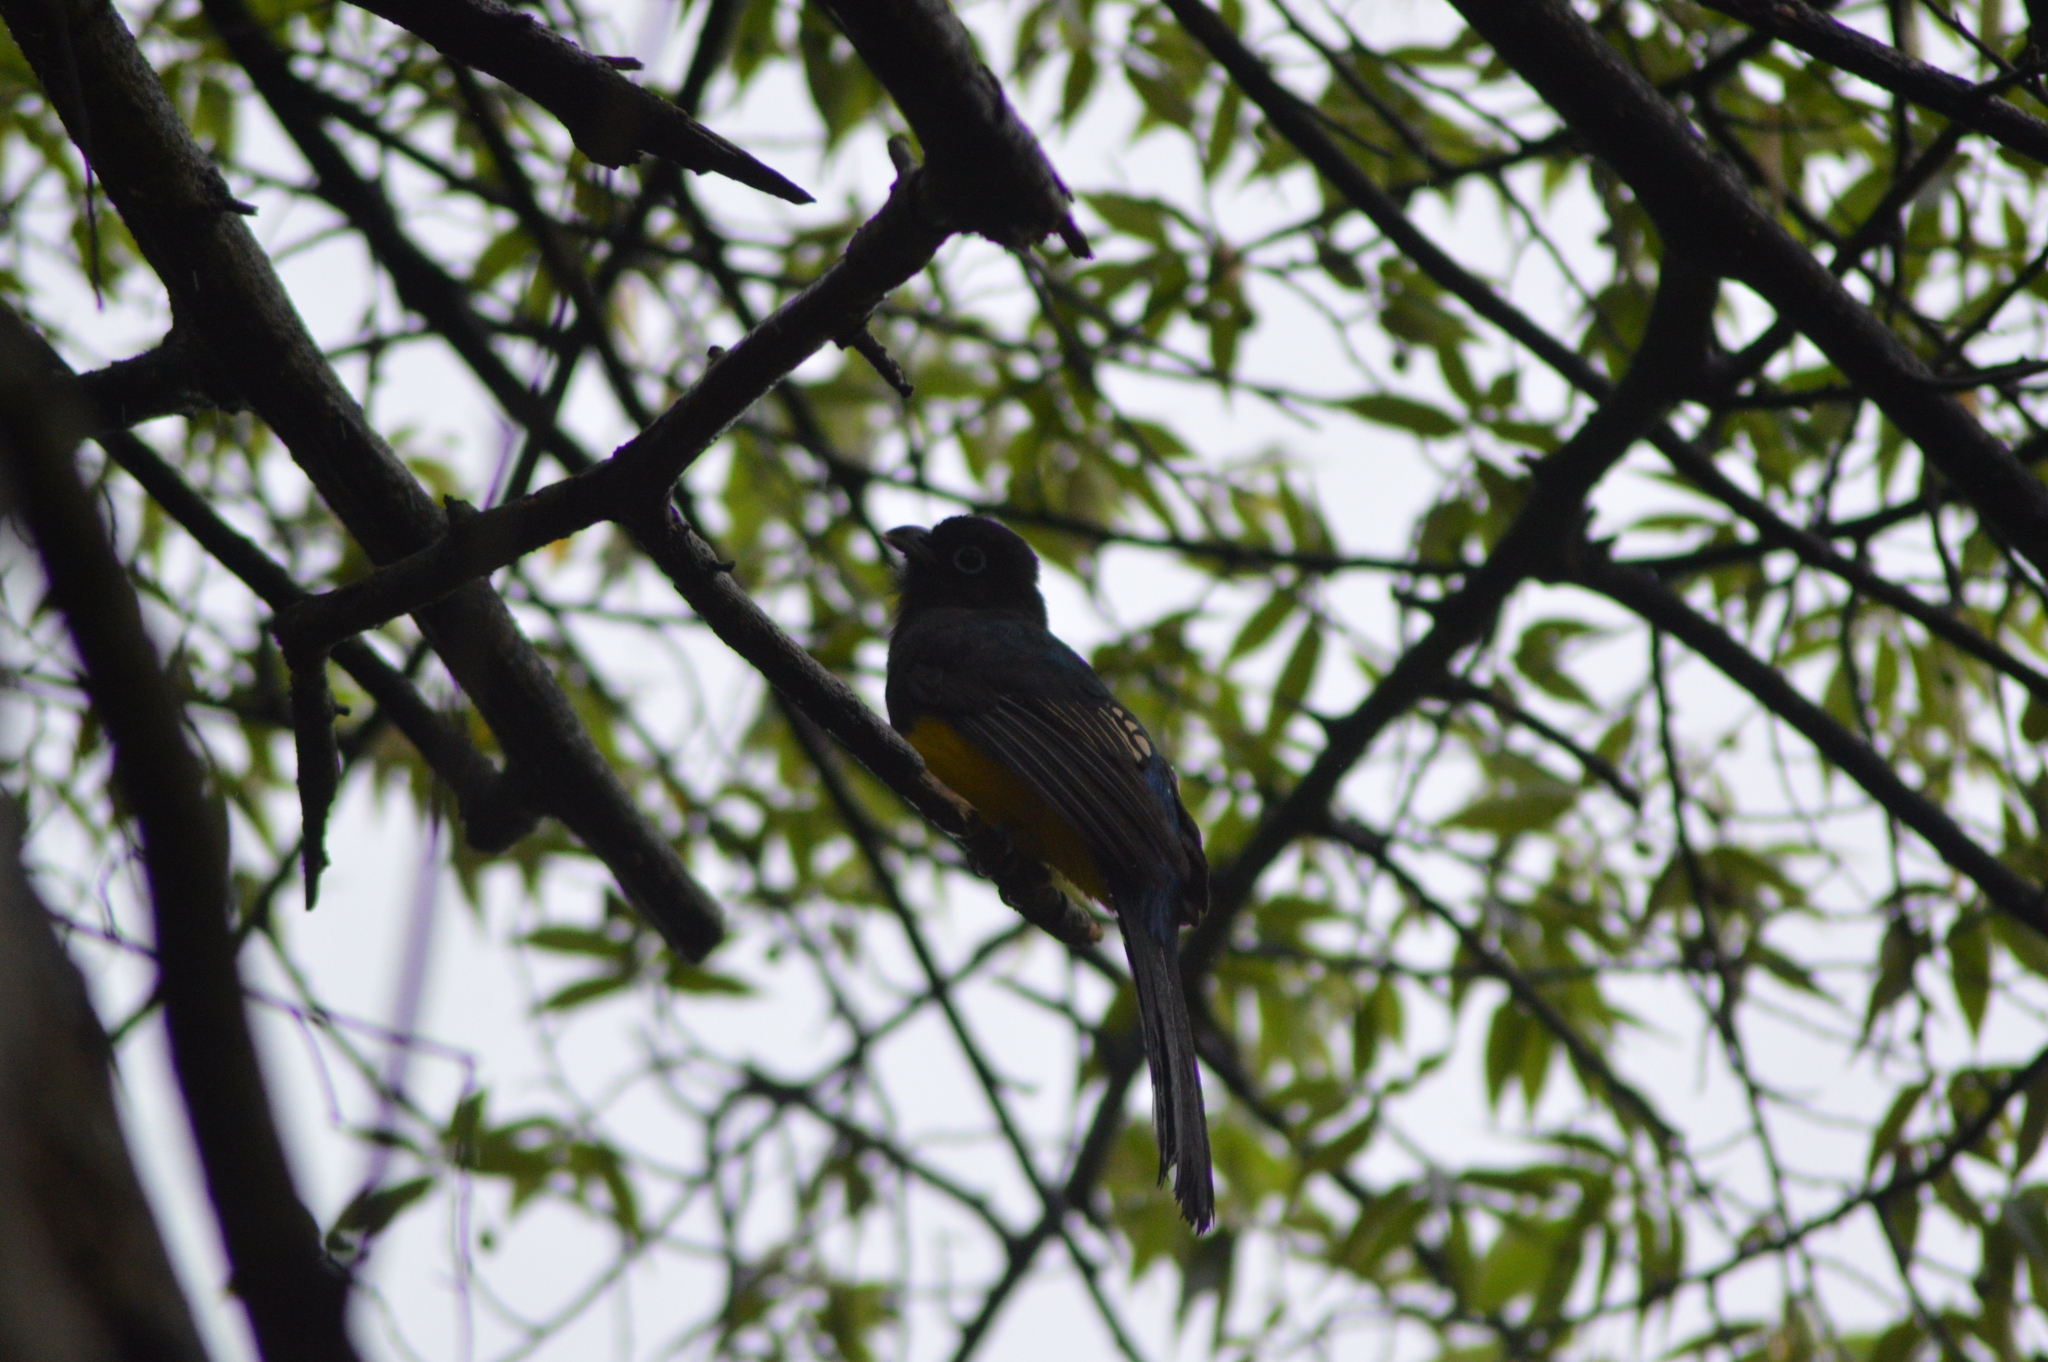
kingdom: Animalia
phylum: Chordata
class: Aves
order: Trogoniformes
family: Trogonidae
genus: Trogon
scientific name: Trogon melanocephalus
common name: Black-headed trogon
